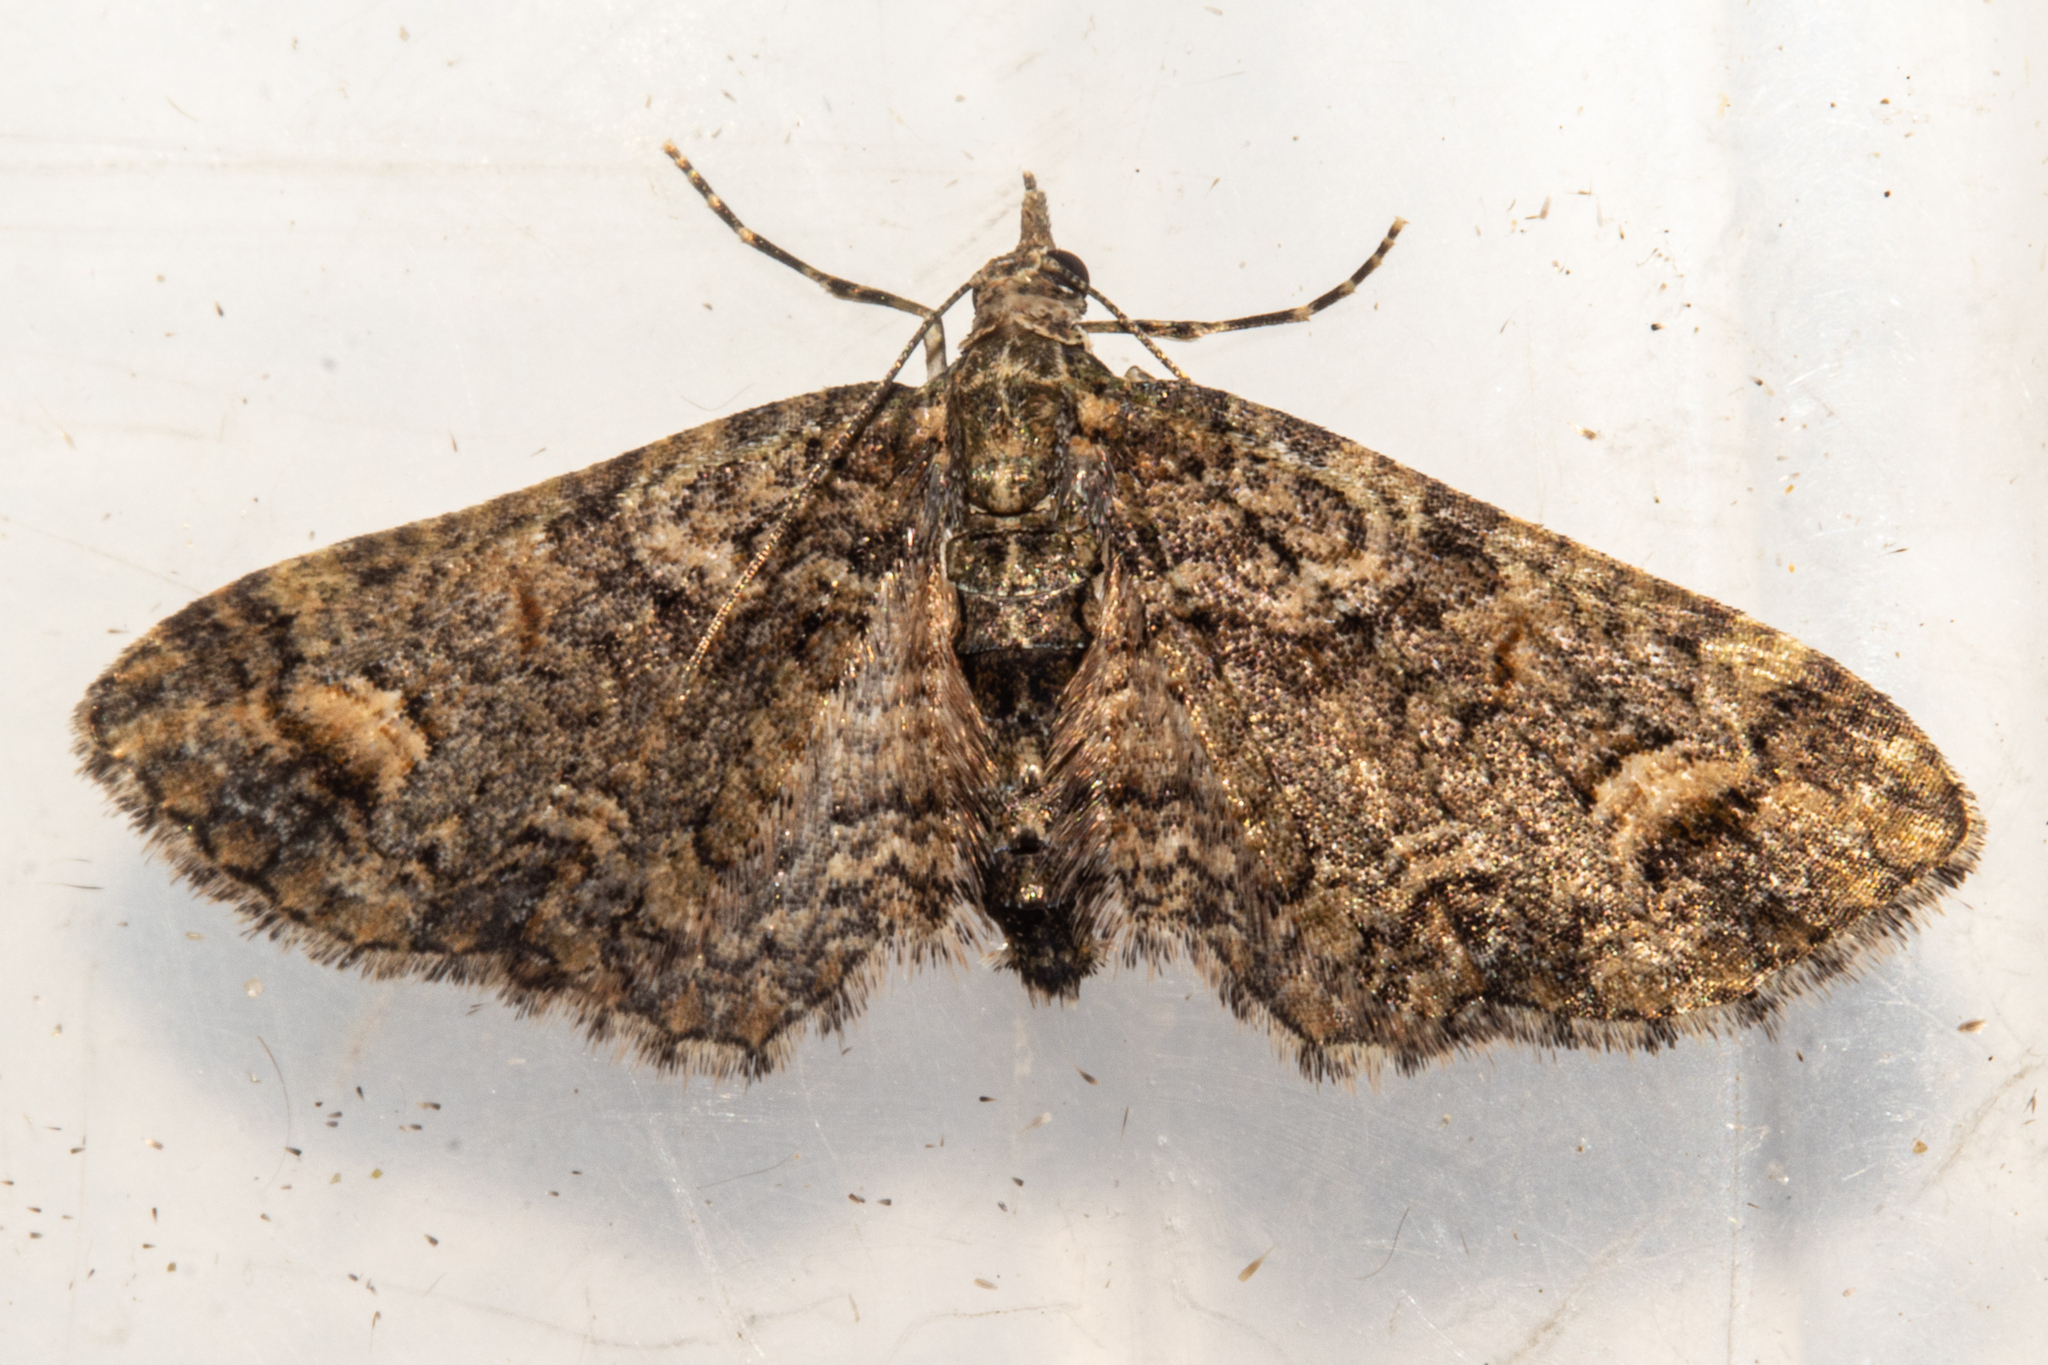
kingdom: Animalia
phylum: Arthropoda
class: Insecta
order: Lepidoptera
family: Geometridae
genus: Idaea
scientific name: Idaea mutanda
